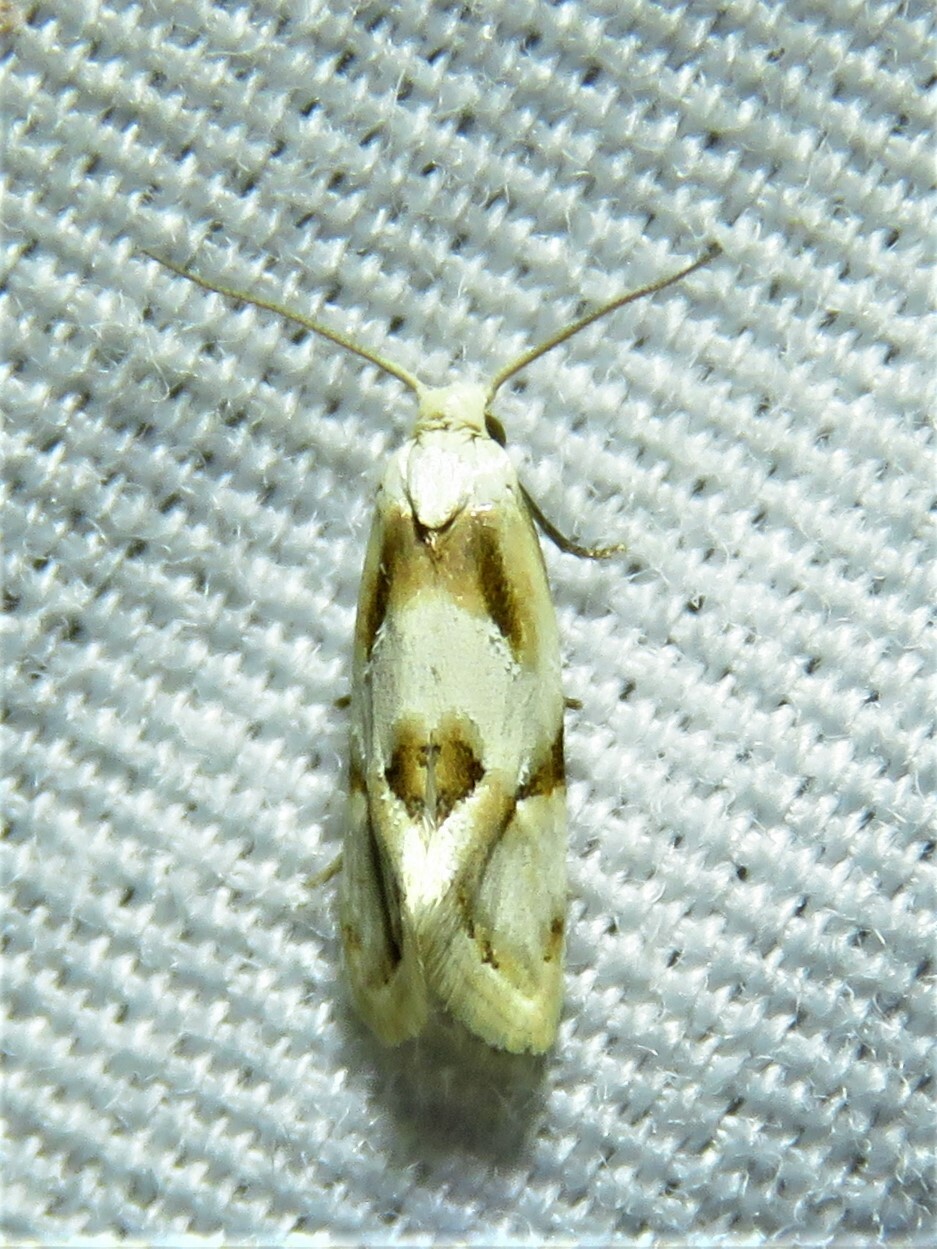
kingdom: Animalia
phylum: Arthropoda
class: Insecta
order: Lepidoptera
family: Tortricidae
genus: Aethes
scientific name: Aethes seriatana
